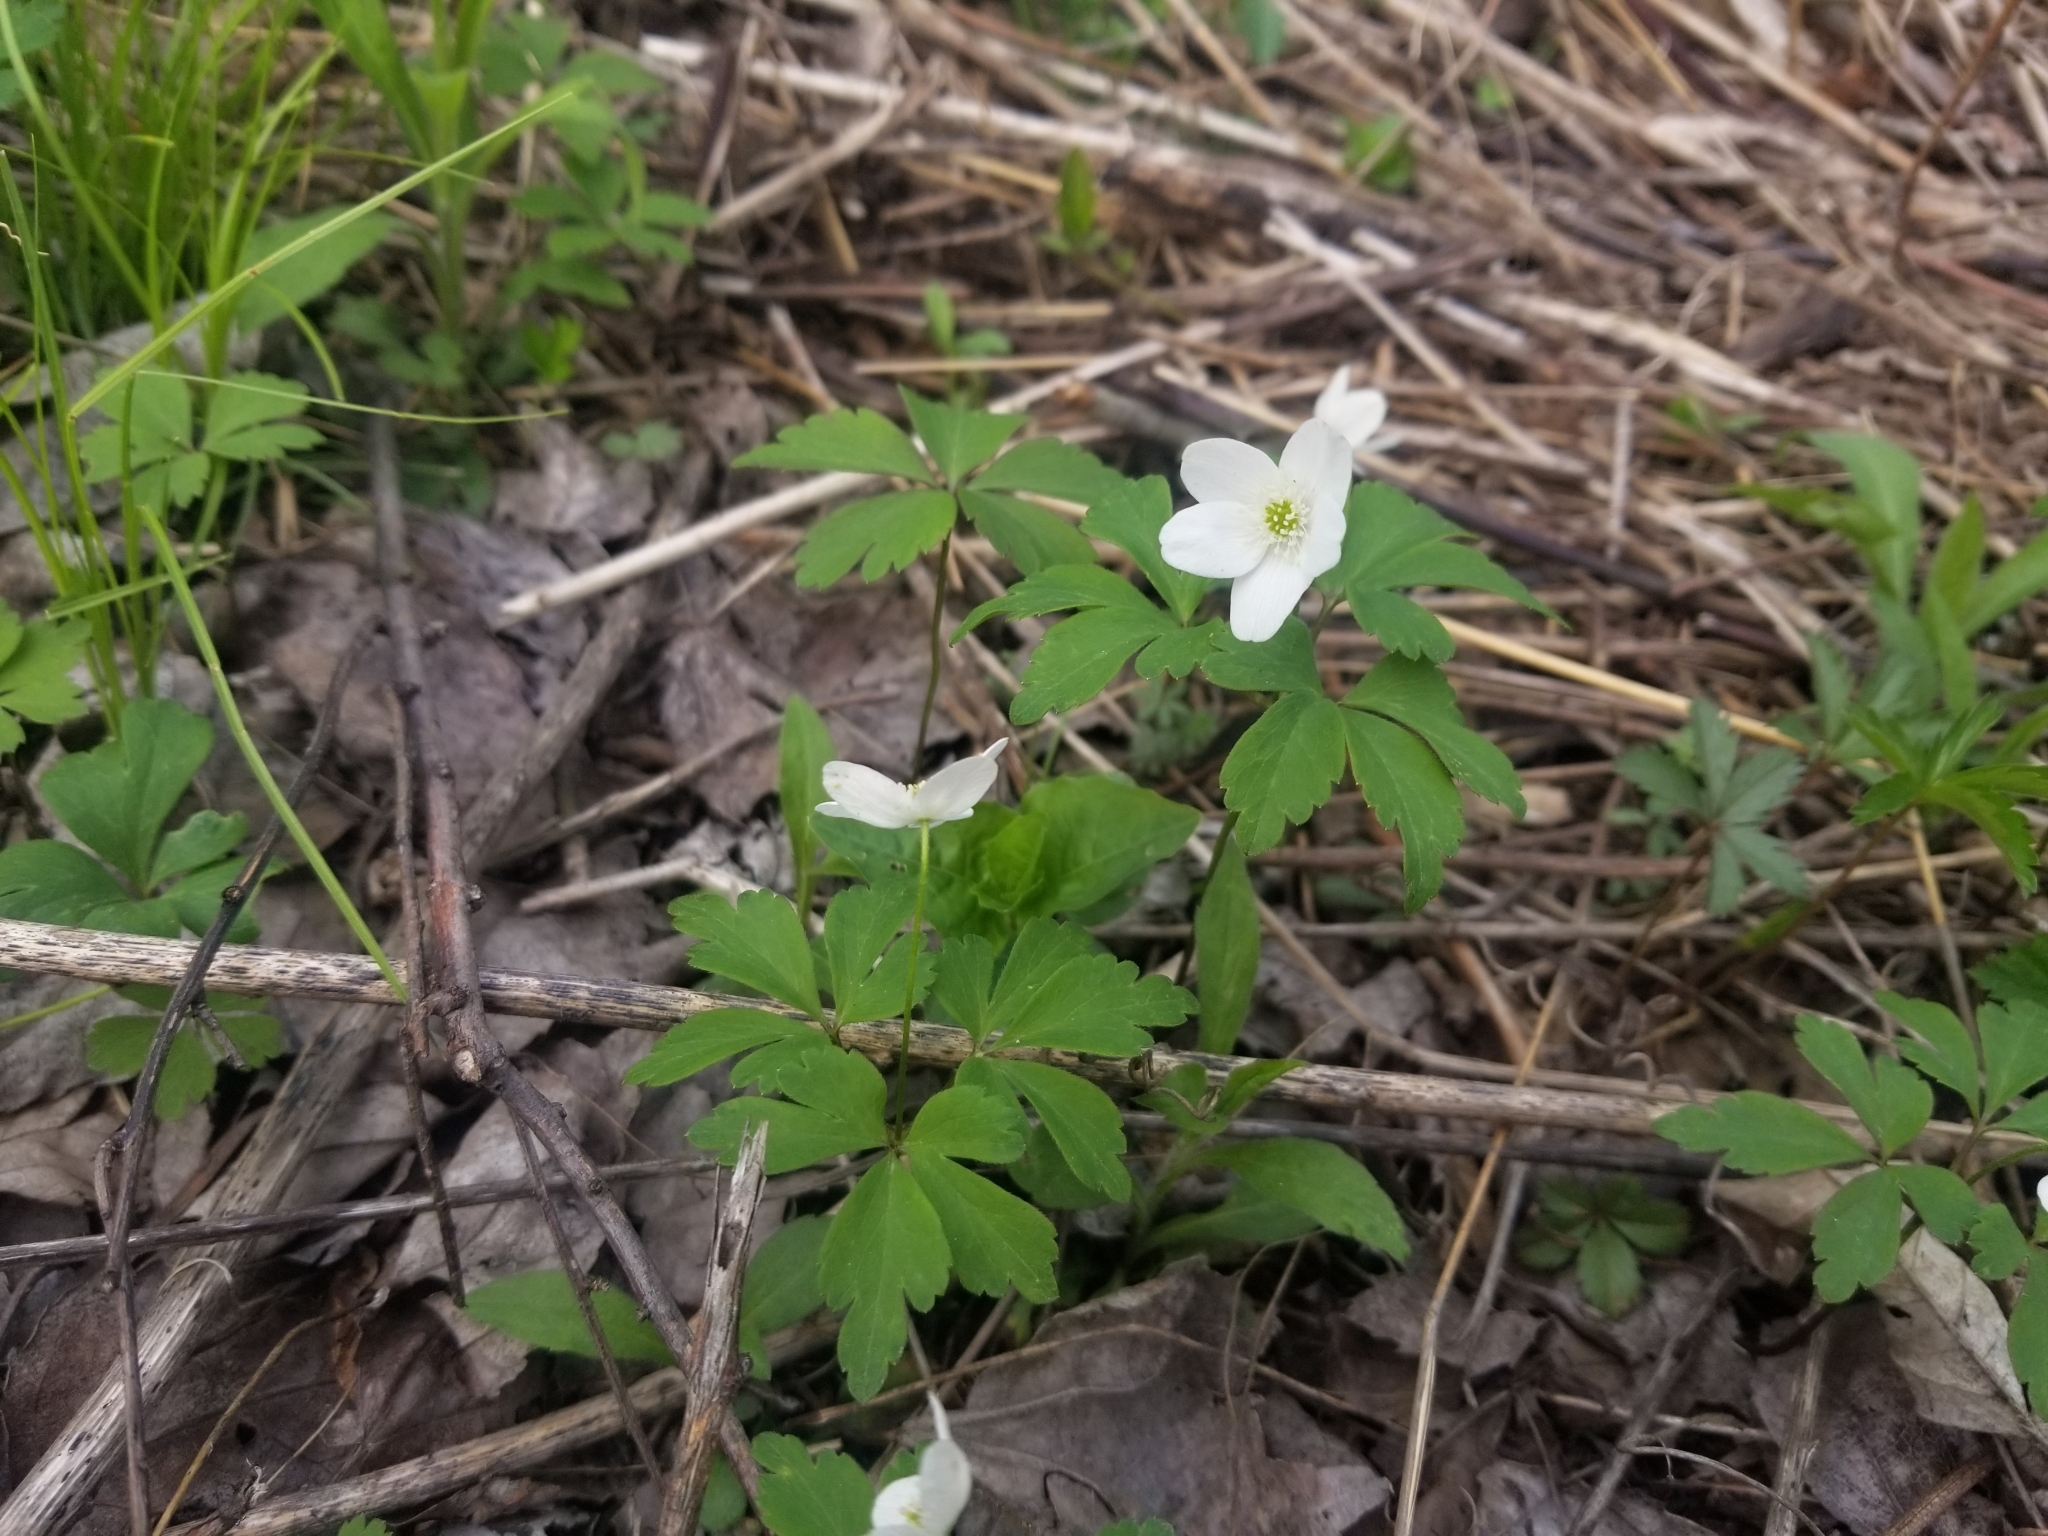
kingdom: Plantae
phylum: Tracheophyta
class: Magnoliopsida
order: Ranunculales
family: Ranunculaceae
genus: Anemone
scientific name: Anemone quinquefolia
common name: Wood anemone
